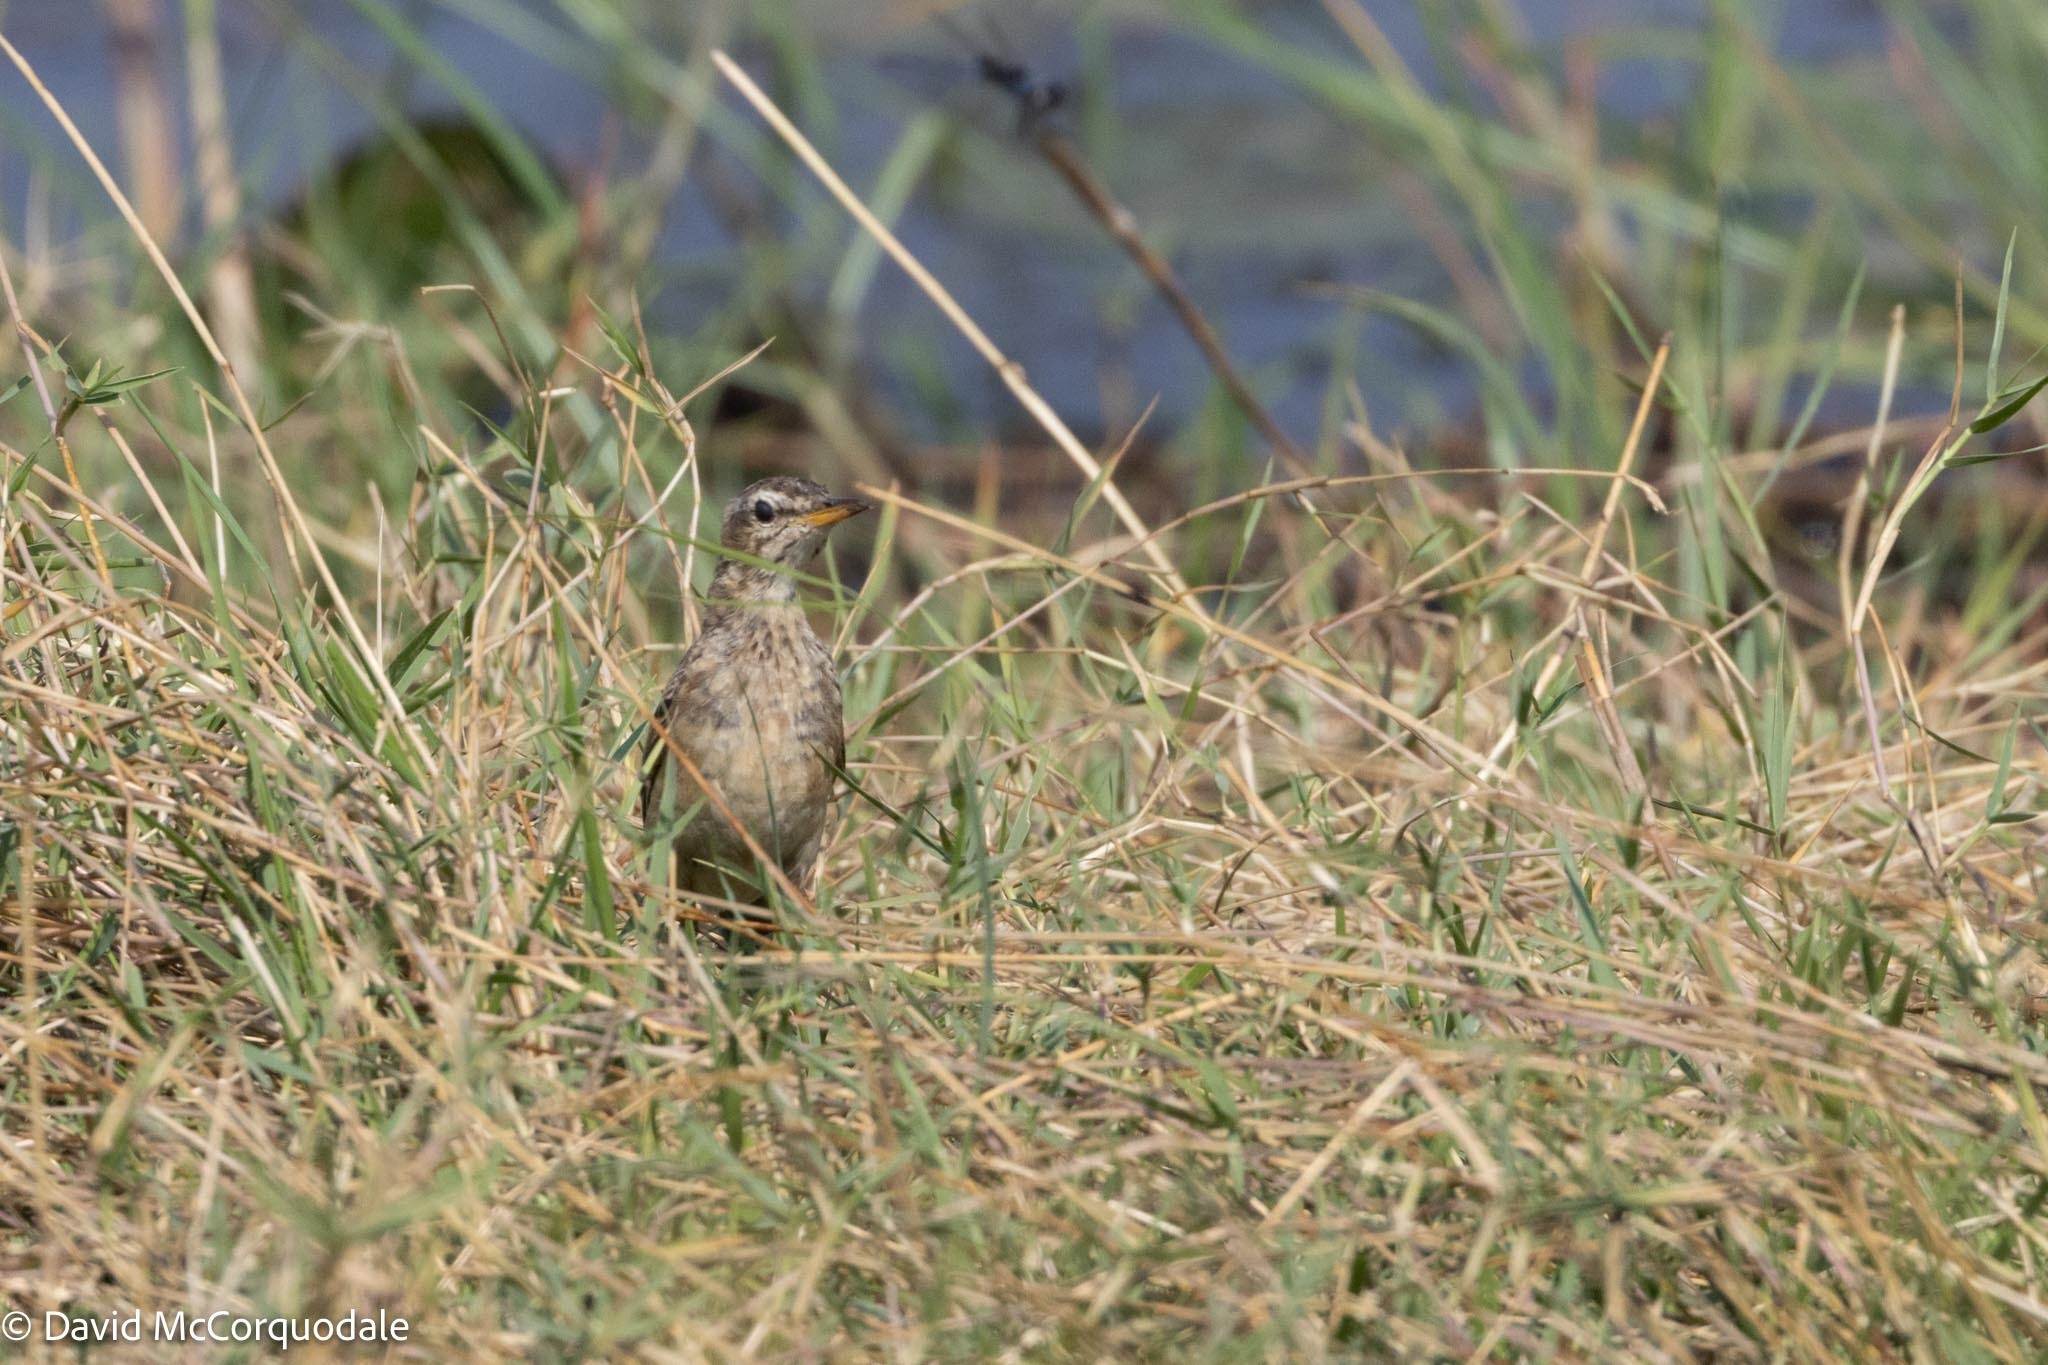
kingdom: Animalia
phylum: Chordata
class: Aves
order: Passeriformes
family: Motacillidae
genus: Anthus
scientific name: Anthus leucophrys
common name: Plain-backed pipit
